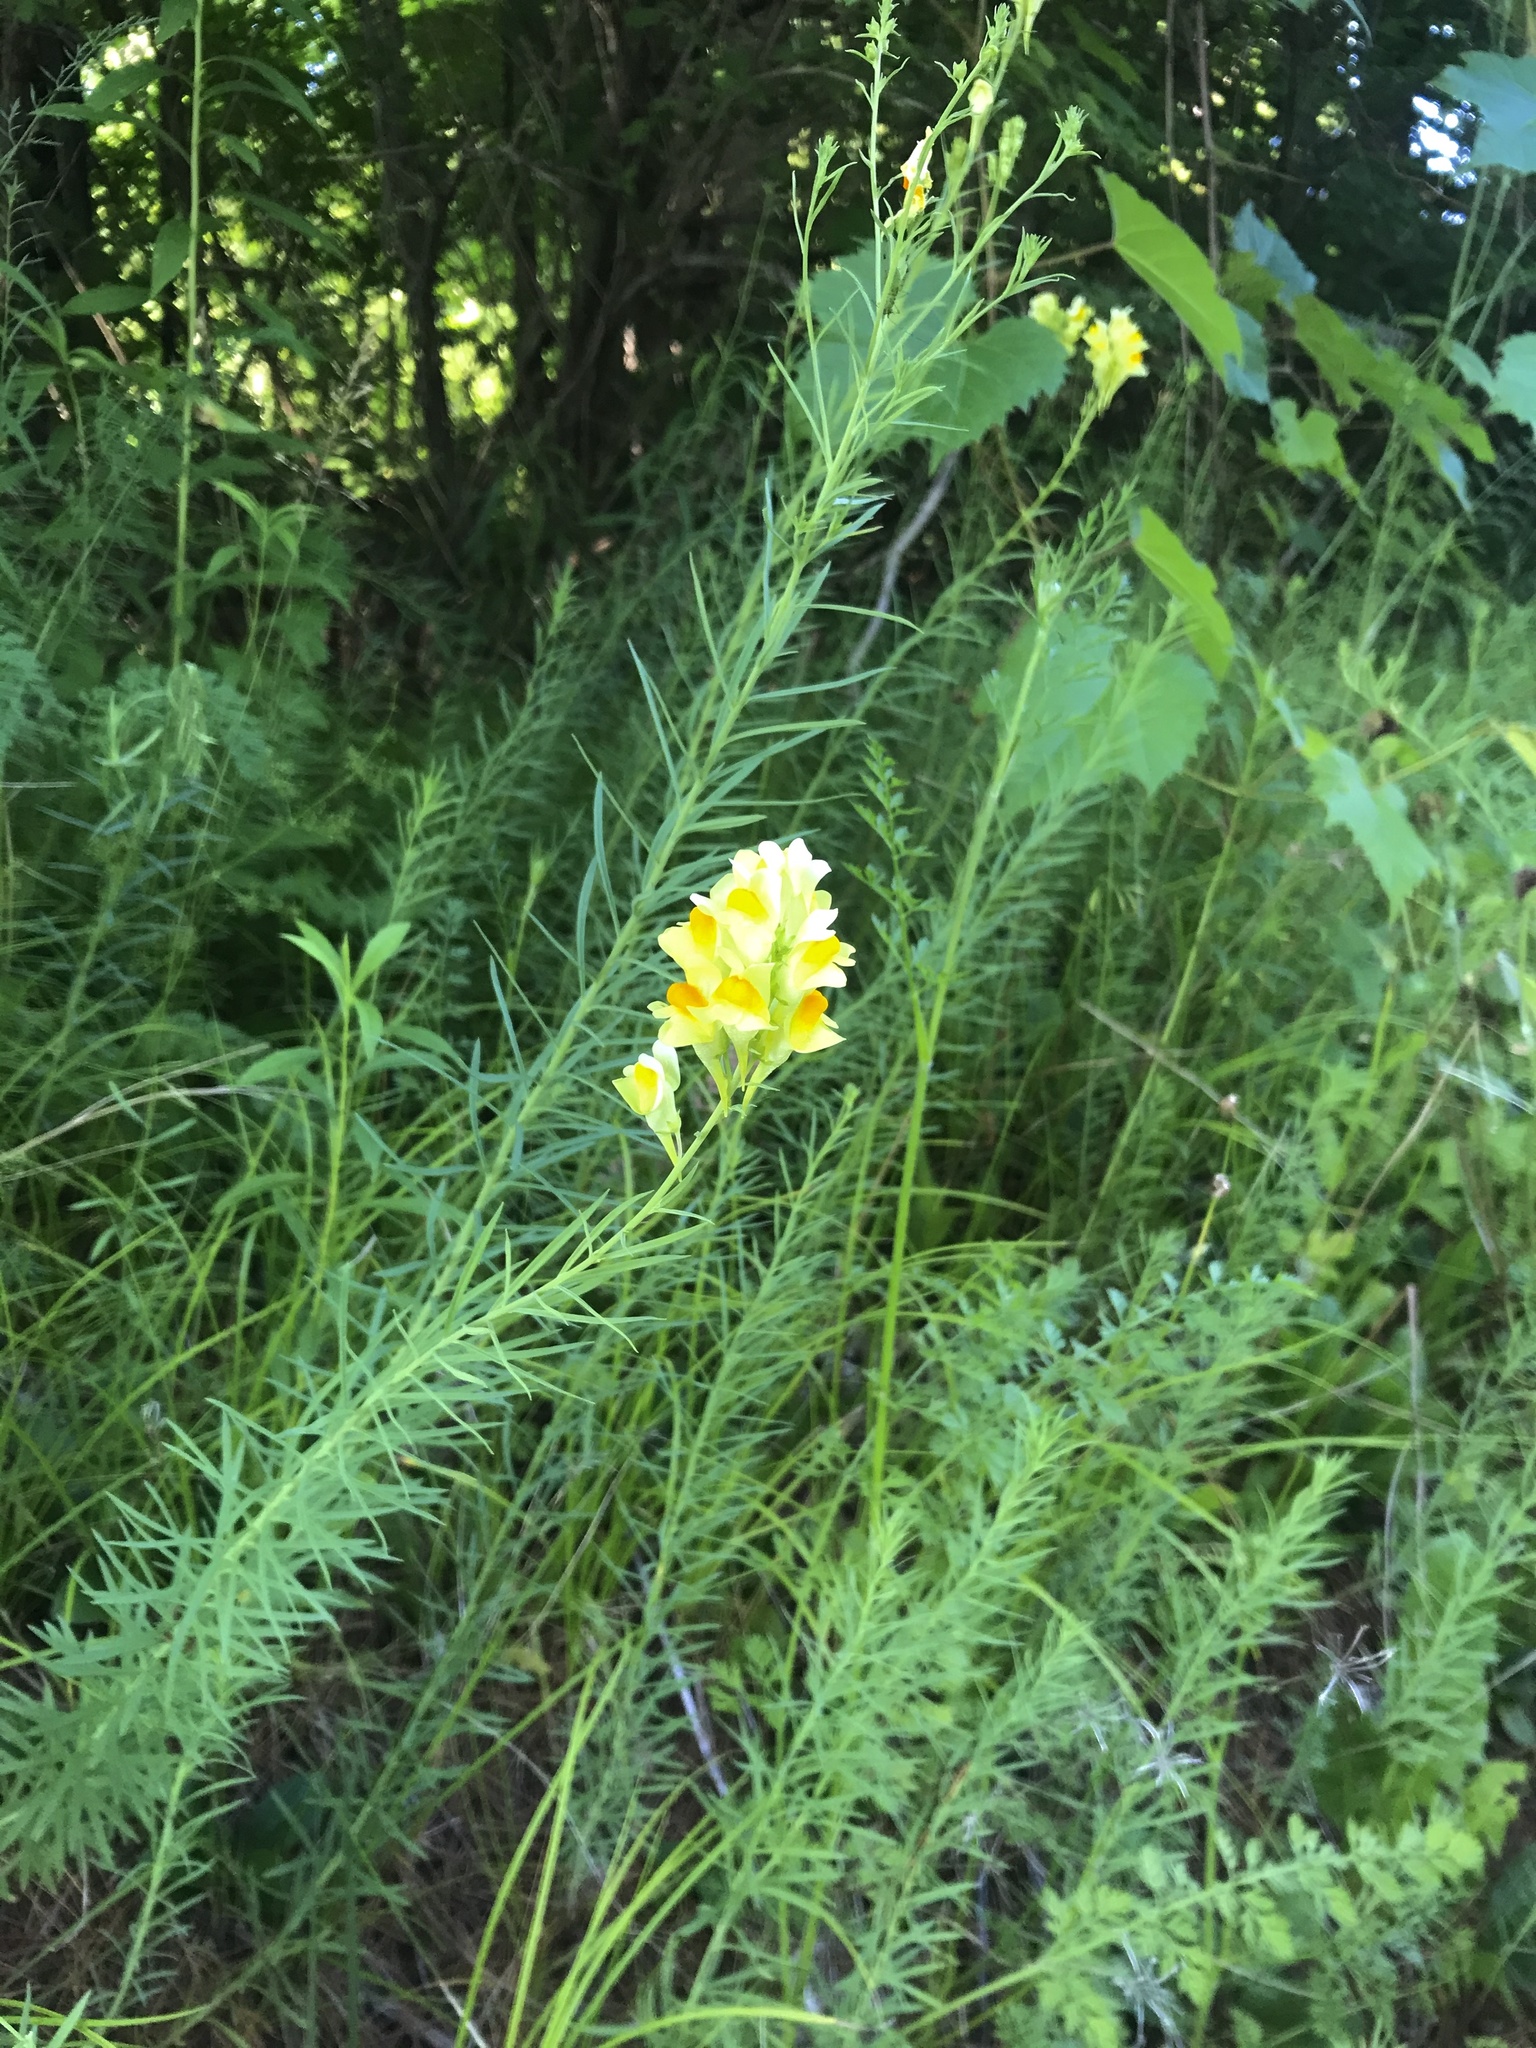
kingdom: Plantae
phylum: Tracheophyta
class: Magnoliopsida
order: Lamiales
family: Plantaginaceae
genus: Linaria
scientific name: Linaria vulgaris
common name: Butter and eggs
